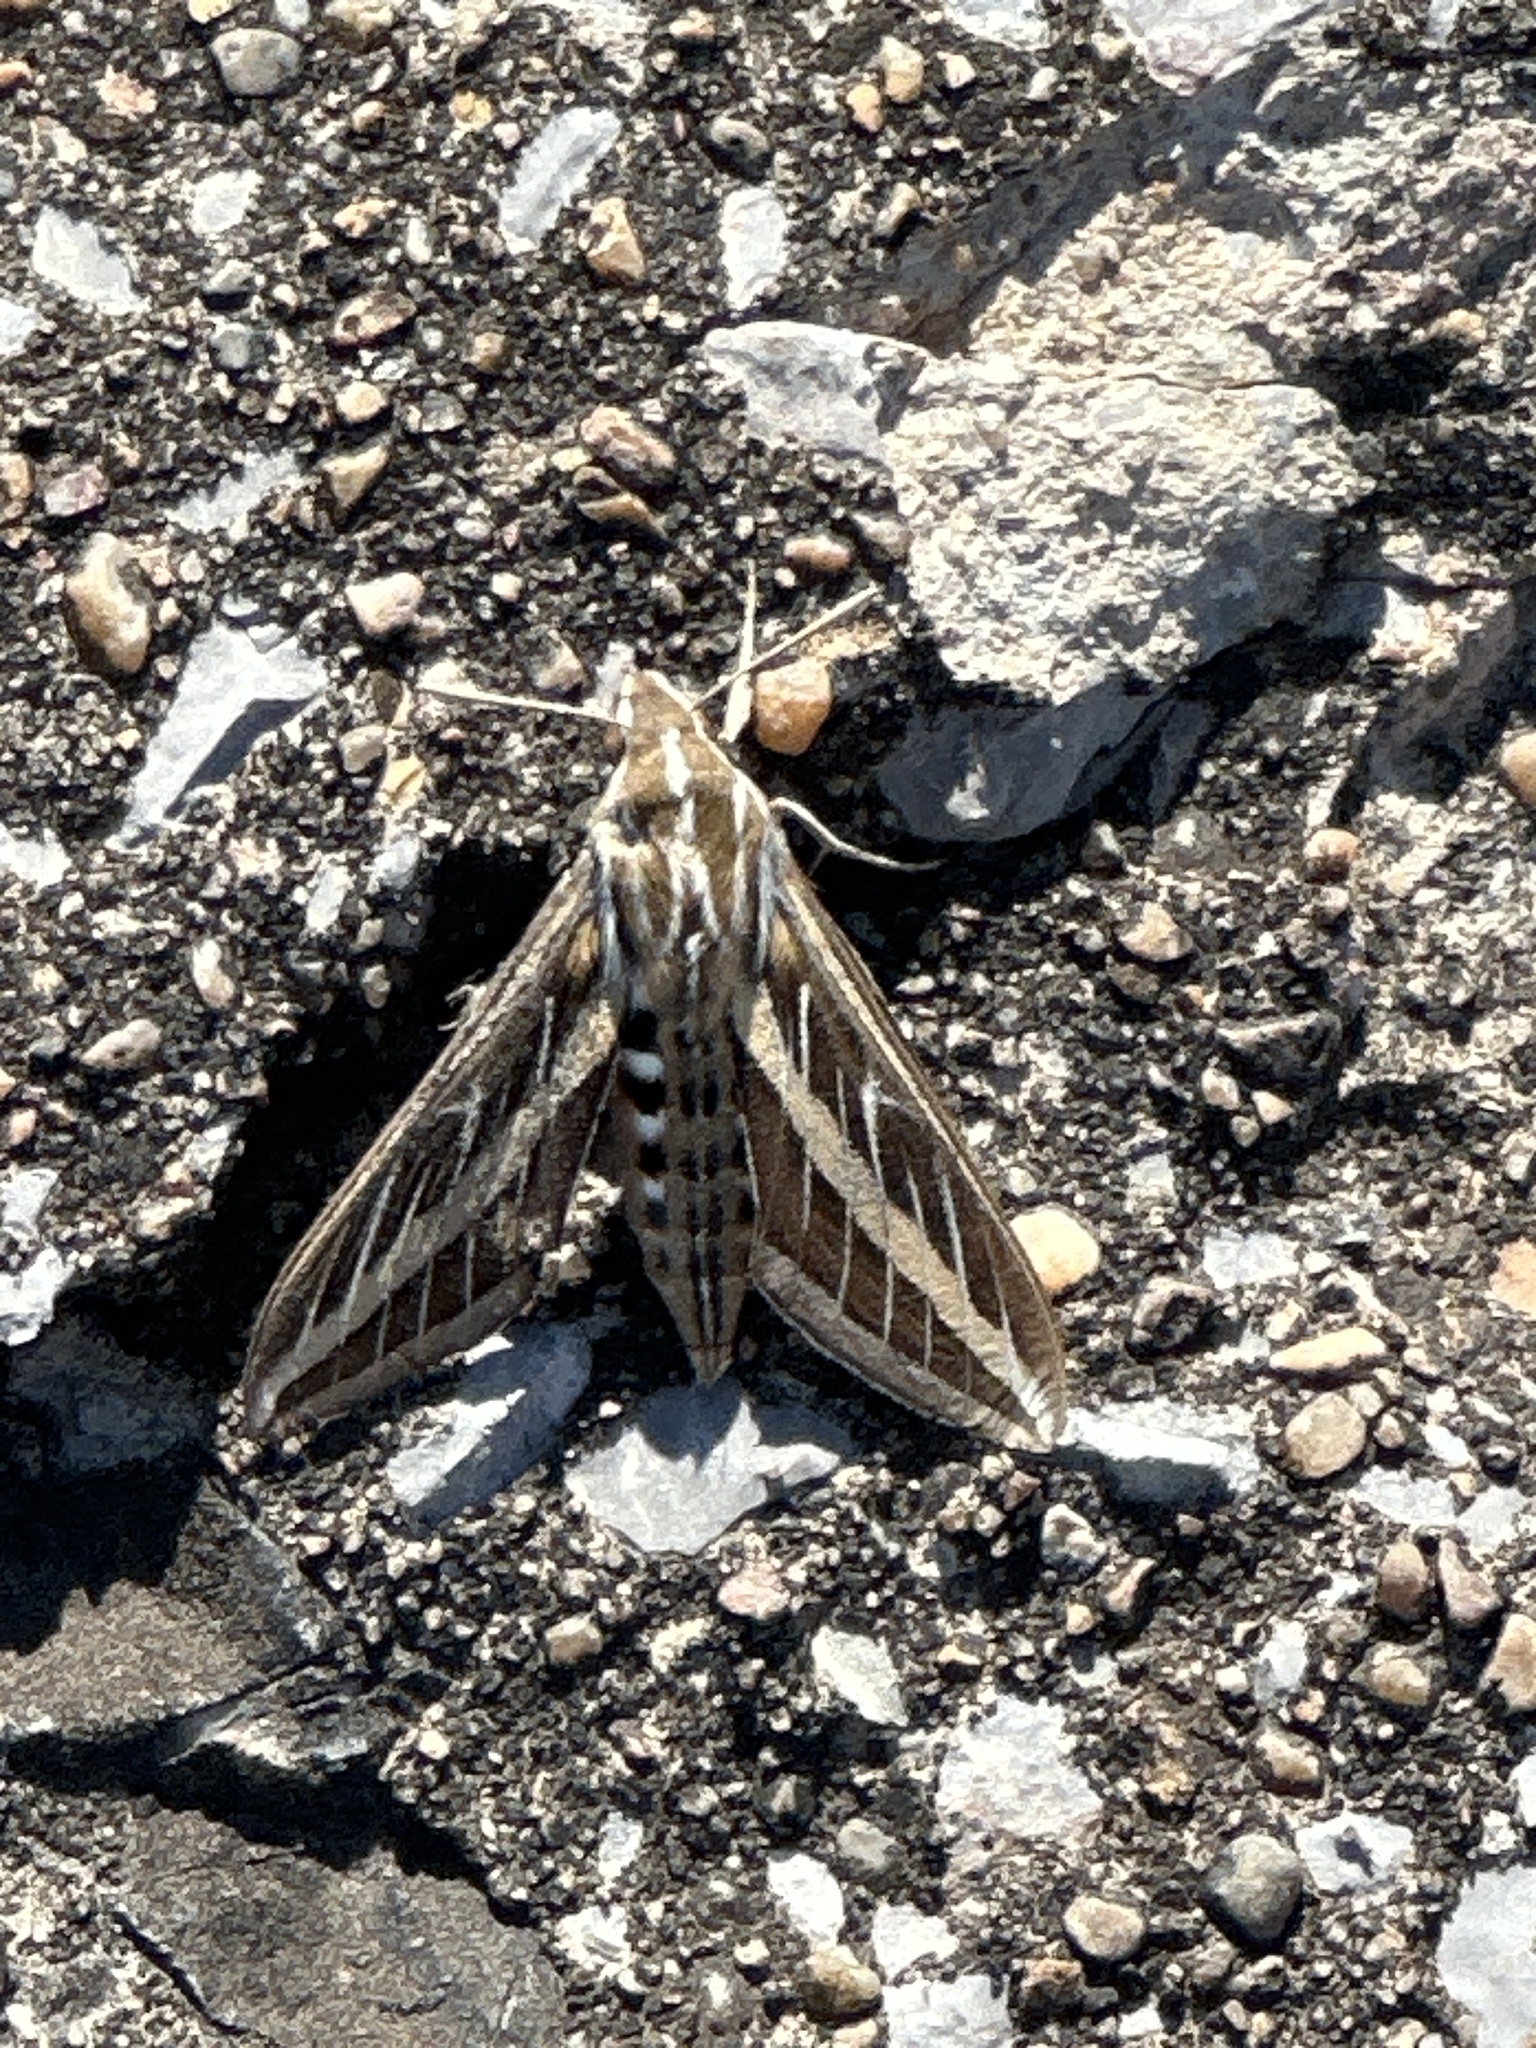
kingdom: Animalia
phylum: Arthropoda
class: Insecta
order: Lepidoptera
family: Sphingidae
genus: Hyles
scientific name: Hyles lineata
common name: White-lined sphinx
